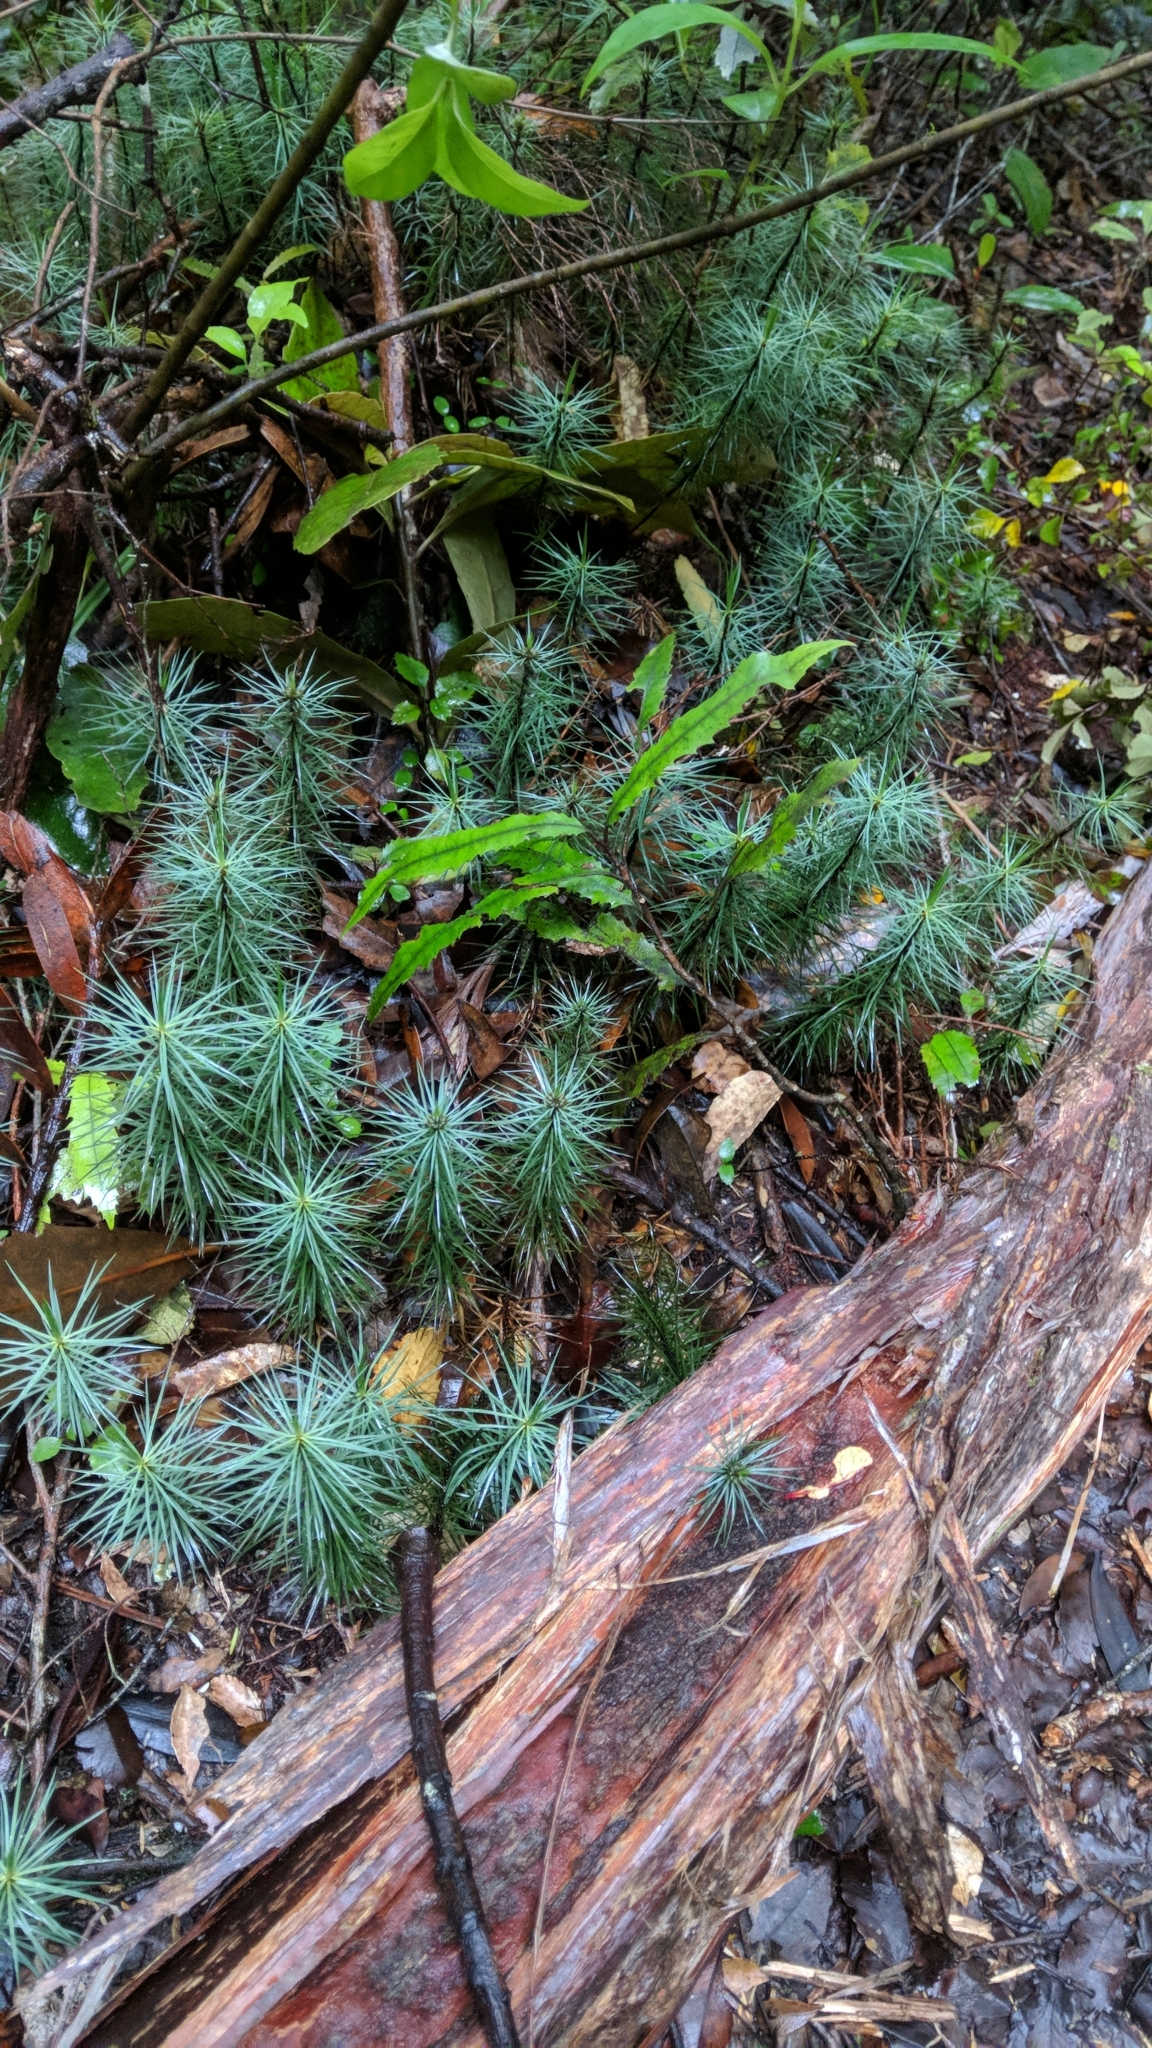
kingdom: Plantae
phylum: Bryophyta
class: Polytrichopsida
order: Polytrichales
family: Polytrichaceae
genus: Dawsonia
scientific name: Dawsonia superba
